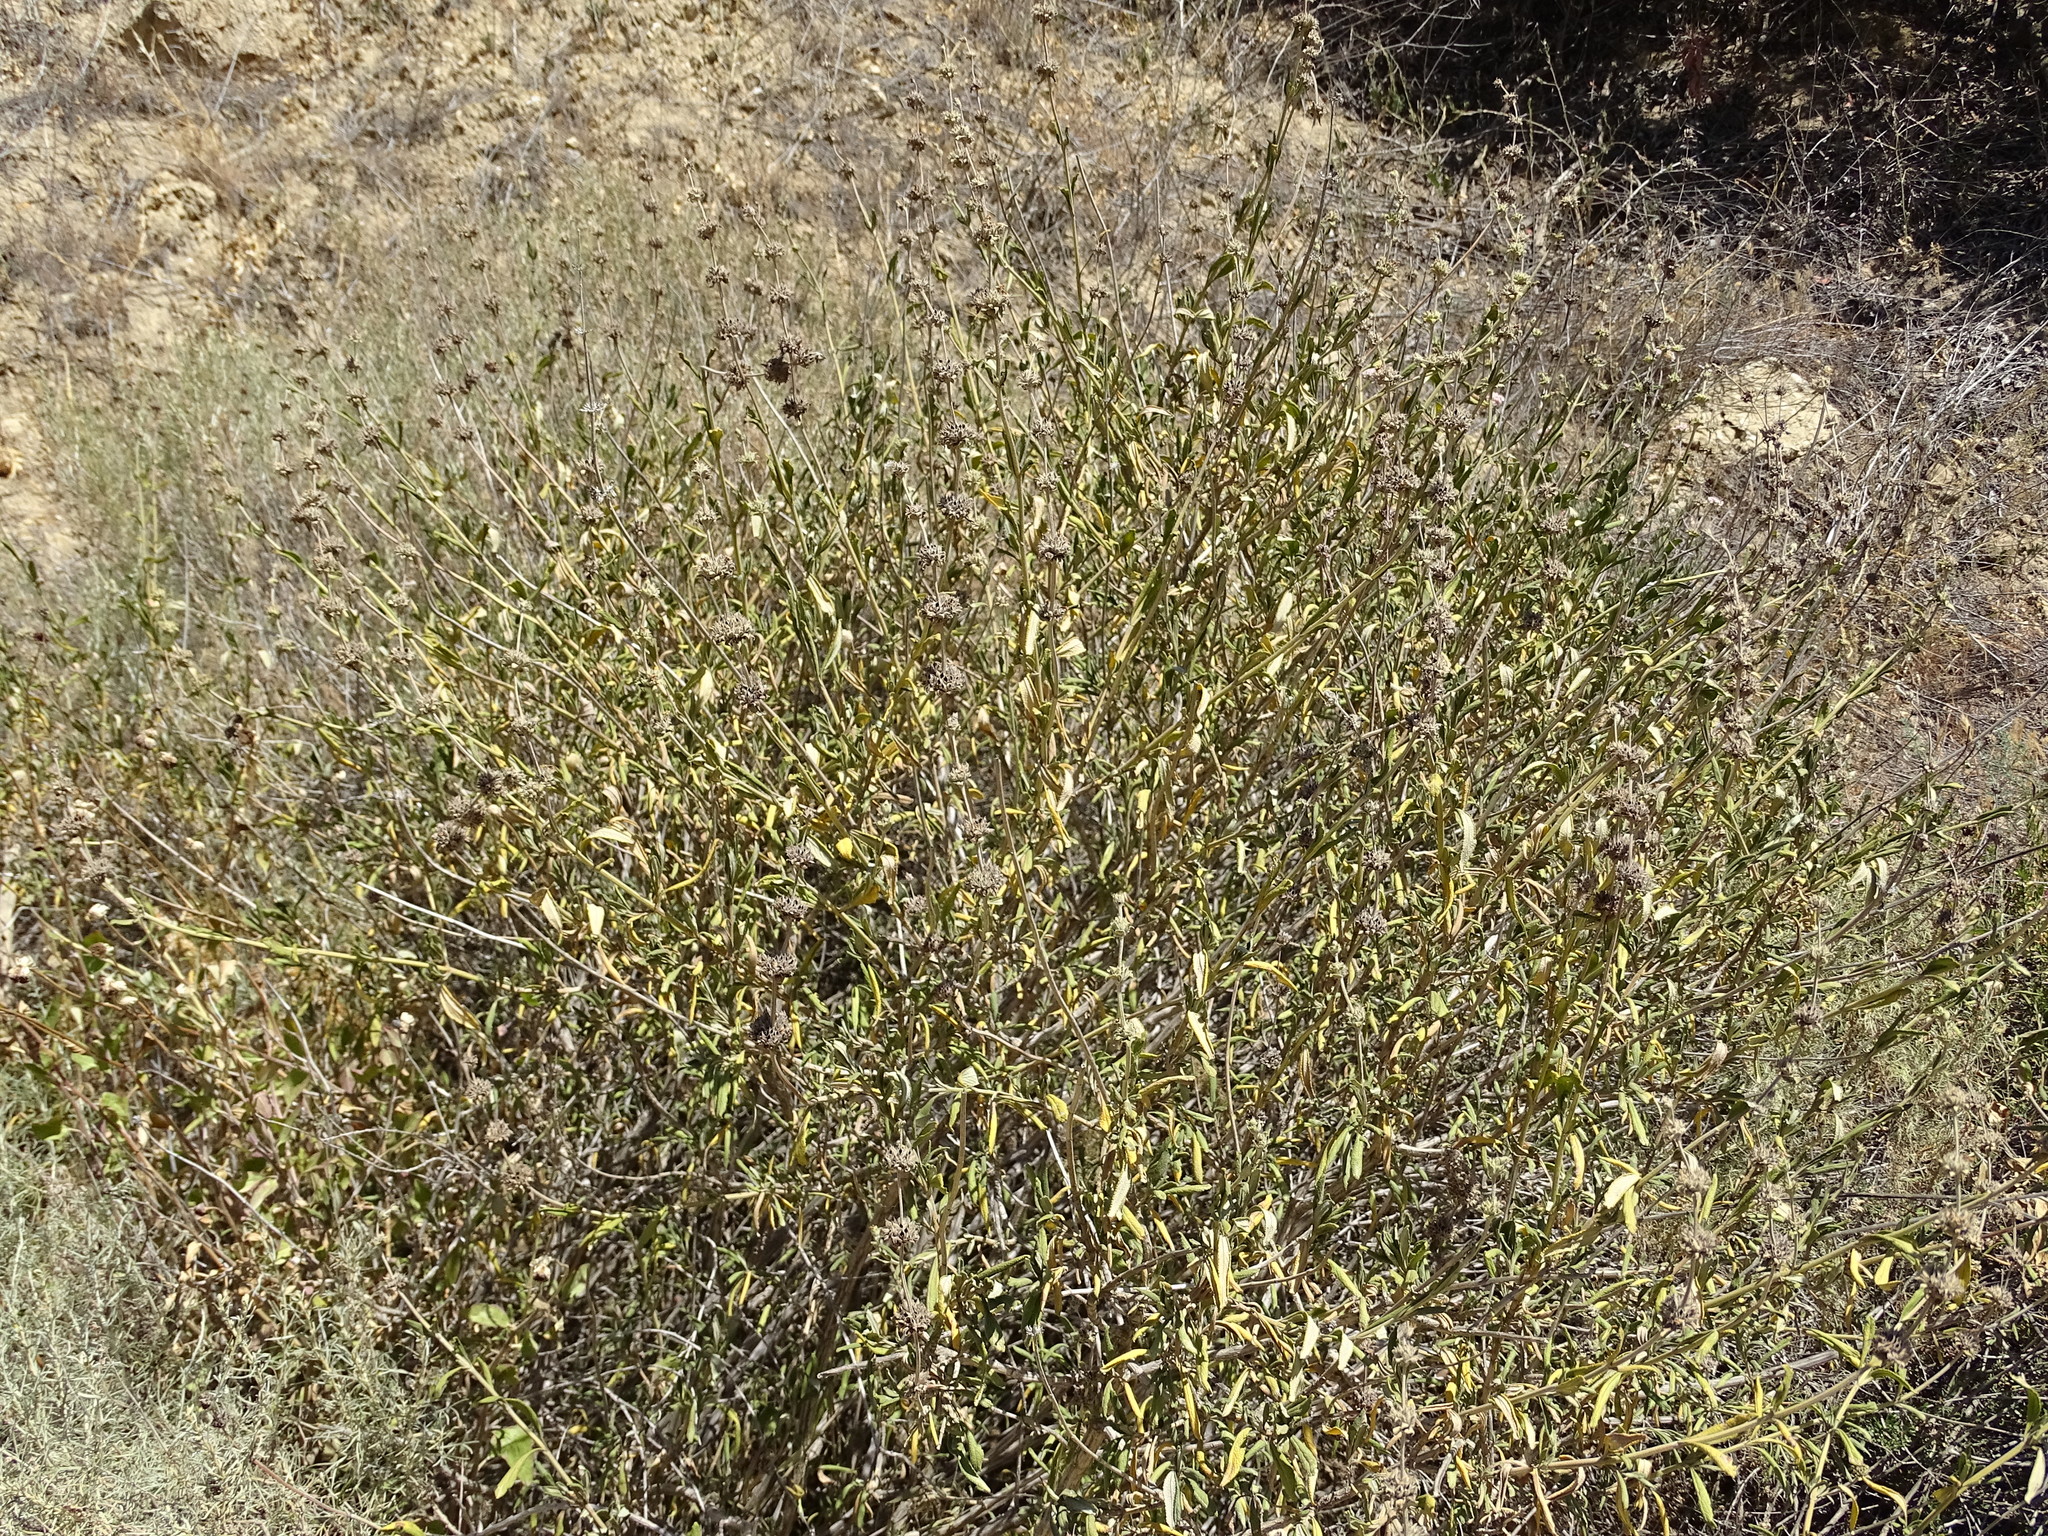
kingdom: Plantae
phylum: Tracheophyta
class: Magnoliopsida
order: Lamiales
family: Lamiaceae
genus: Salvia
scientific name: Salvia mellifera
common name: Black sage
